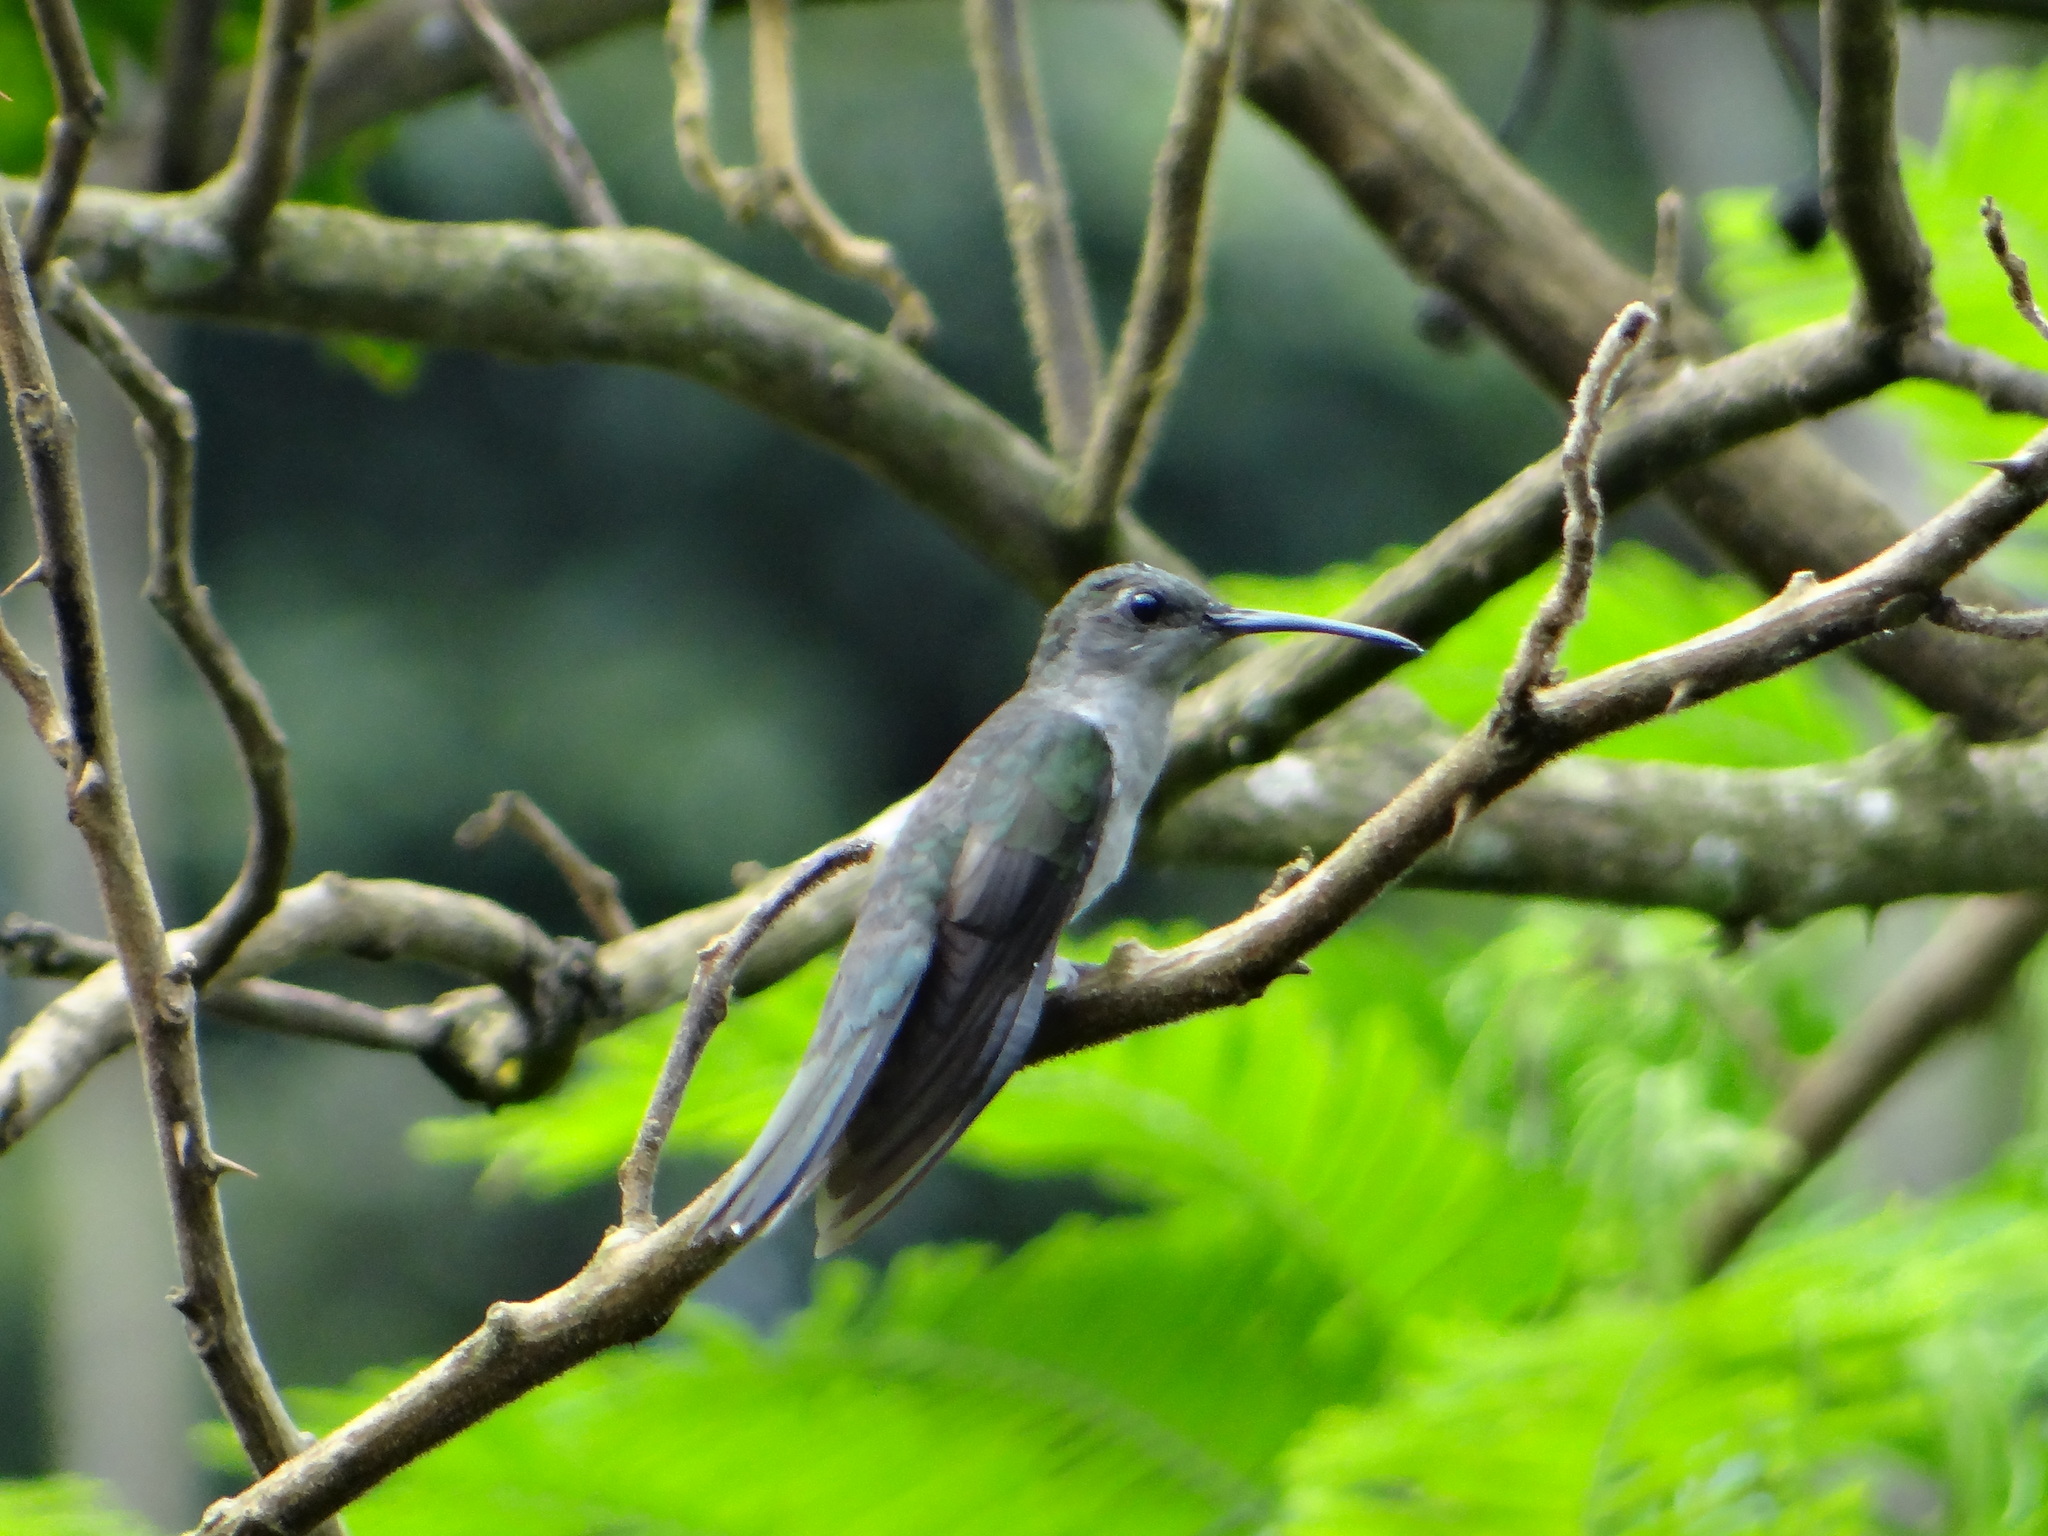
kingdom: Animalia
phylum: Chordata
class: Aves
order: Apodiformes
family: Trochilidae
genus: Campylopterus
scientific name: Campylopterus largipennis
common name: Gray-breasted sabrewing
